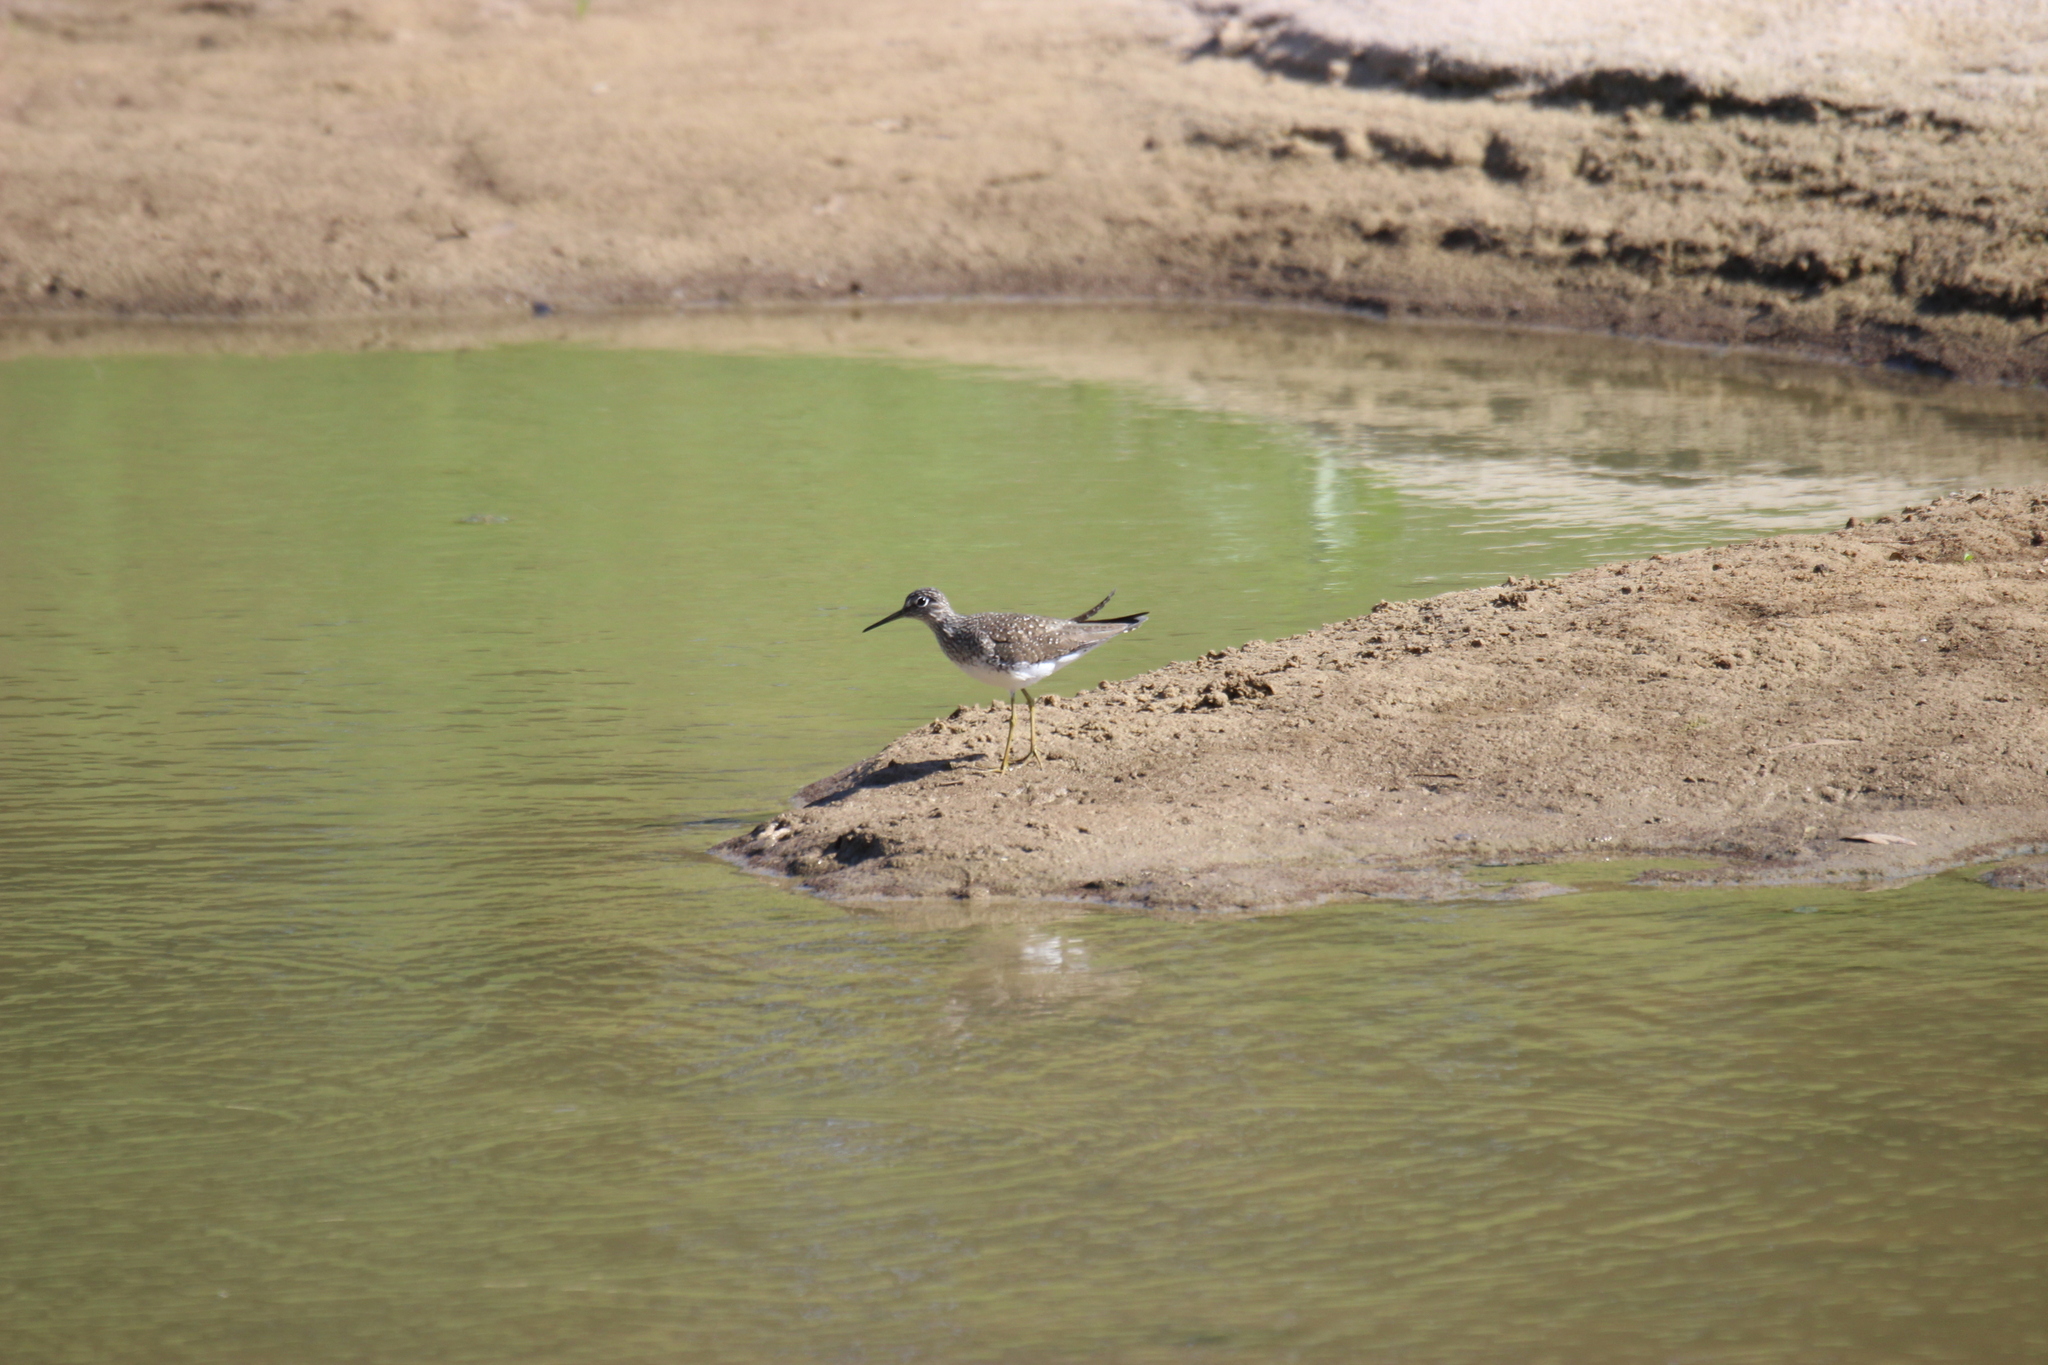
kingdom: Animalia
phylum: Chordata
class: Aves
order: Charadriiformes
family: Scolopacidae
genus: Tringa
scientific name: Tringa solitaria
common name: Solitary sandpiper
